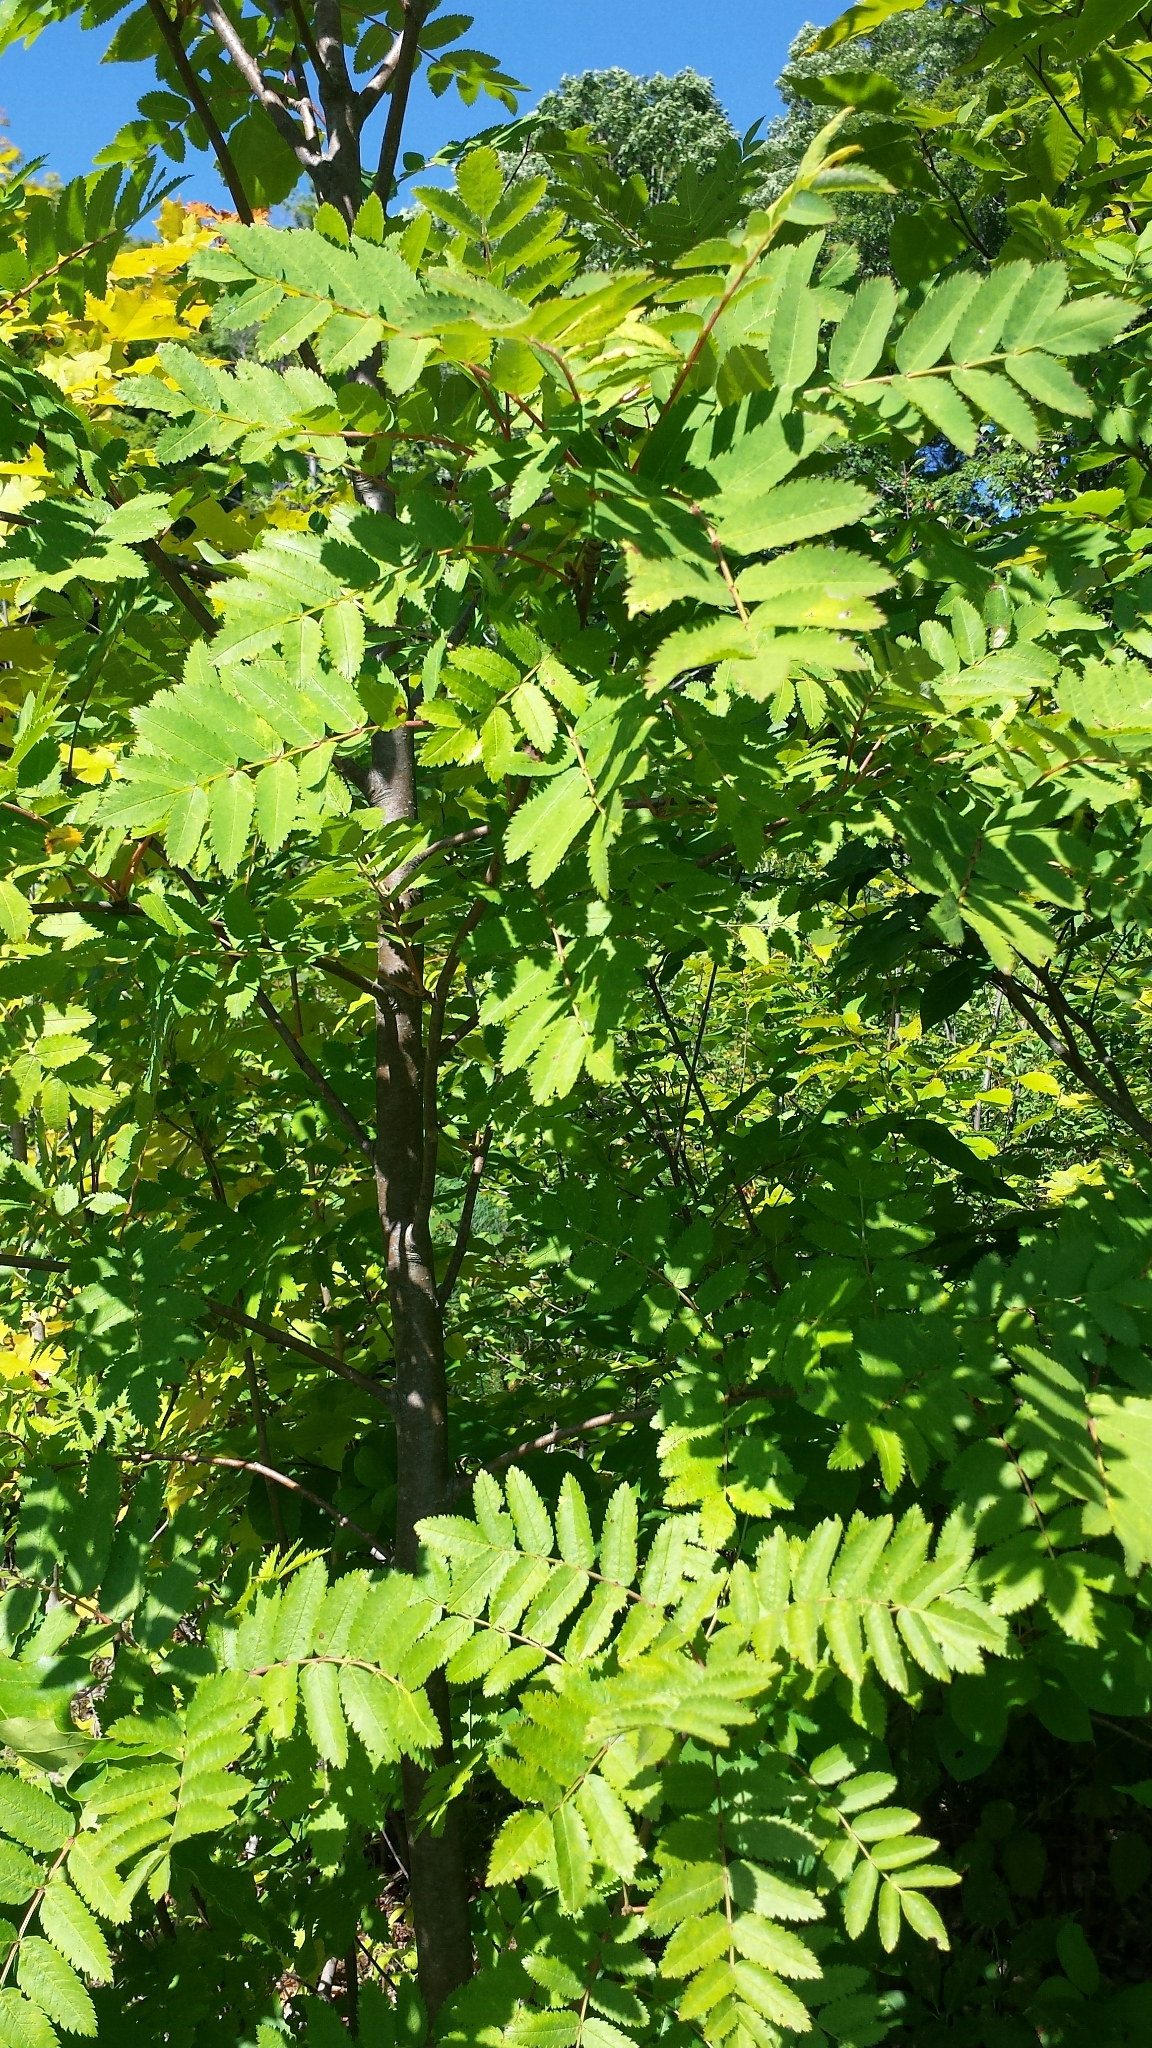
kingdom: Plantae
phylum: Tracheophyta
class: Magnoliopsida
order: Rosales
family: Rosaceae
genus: Sorbus
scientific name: Sorbus aucuparia
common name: Rowan
